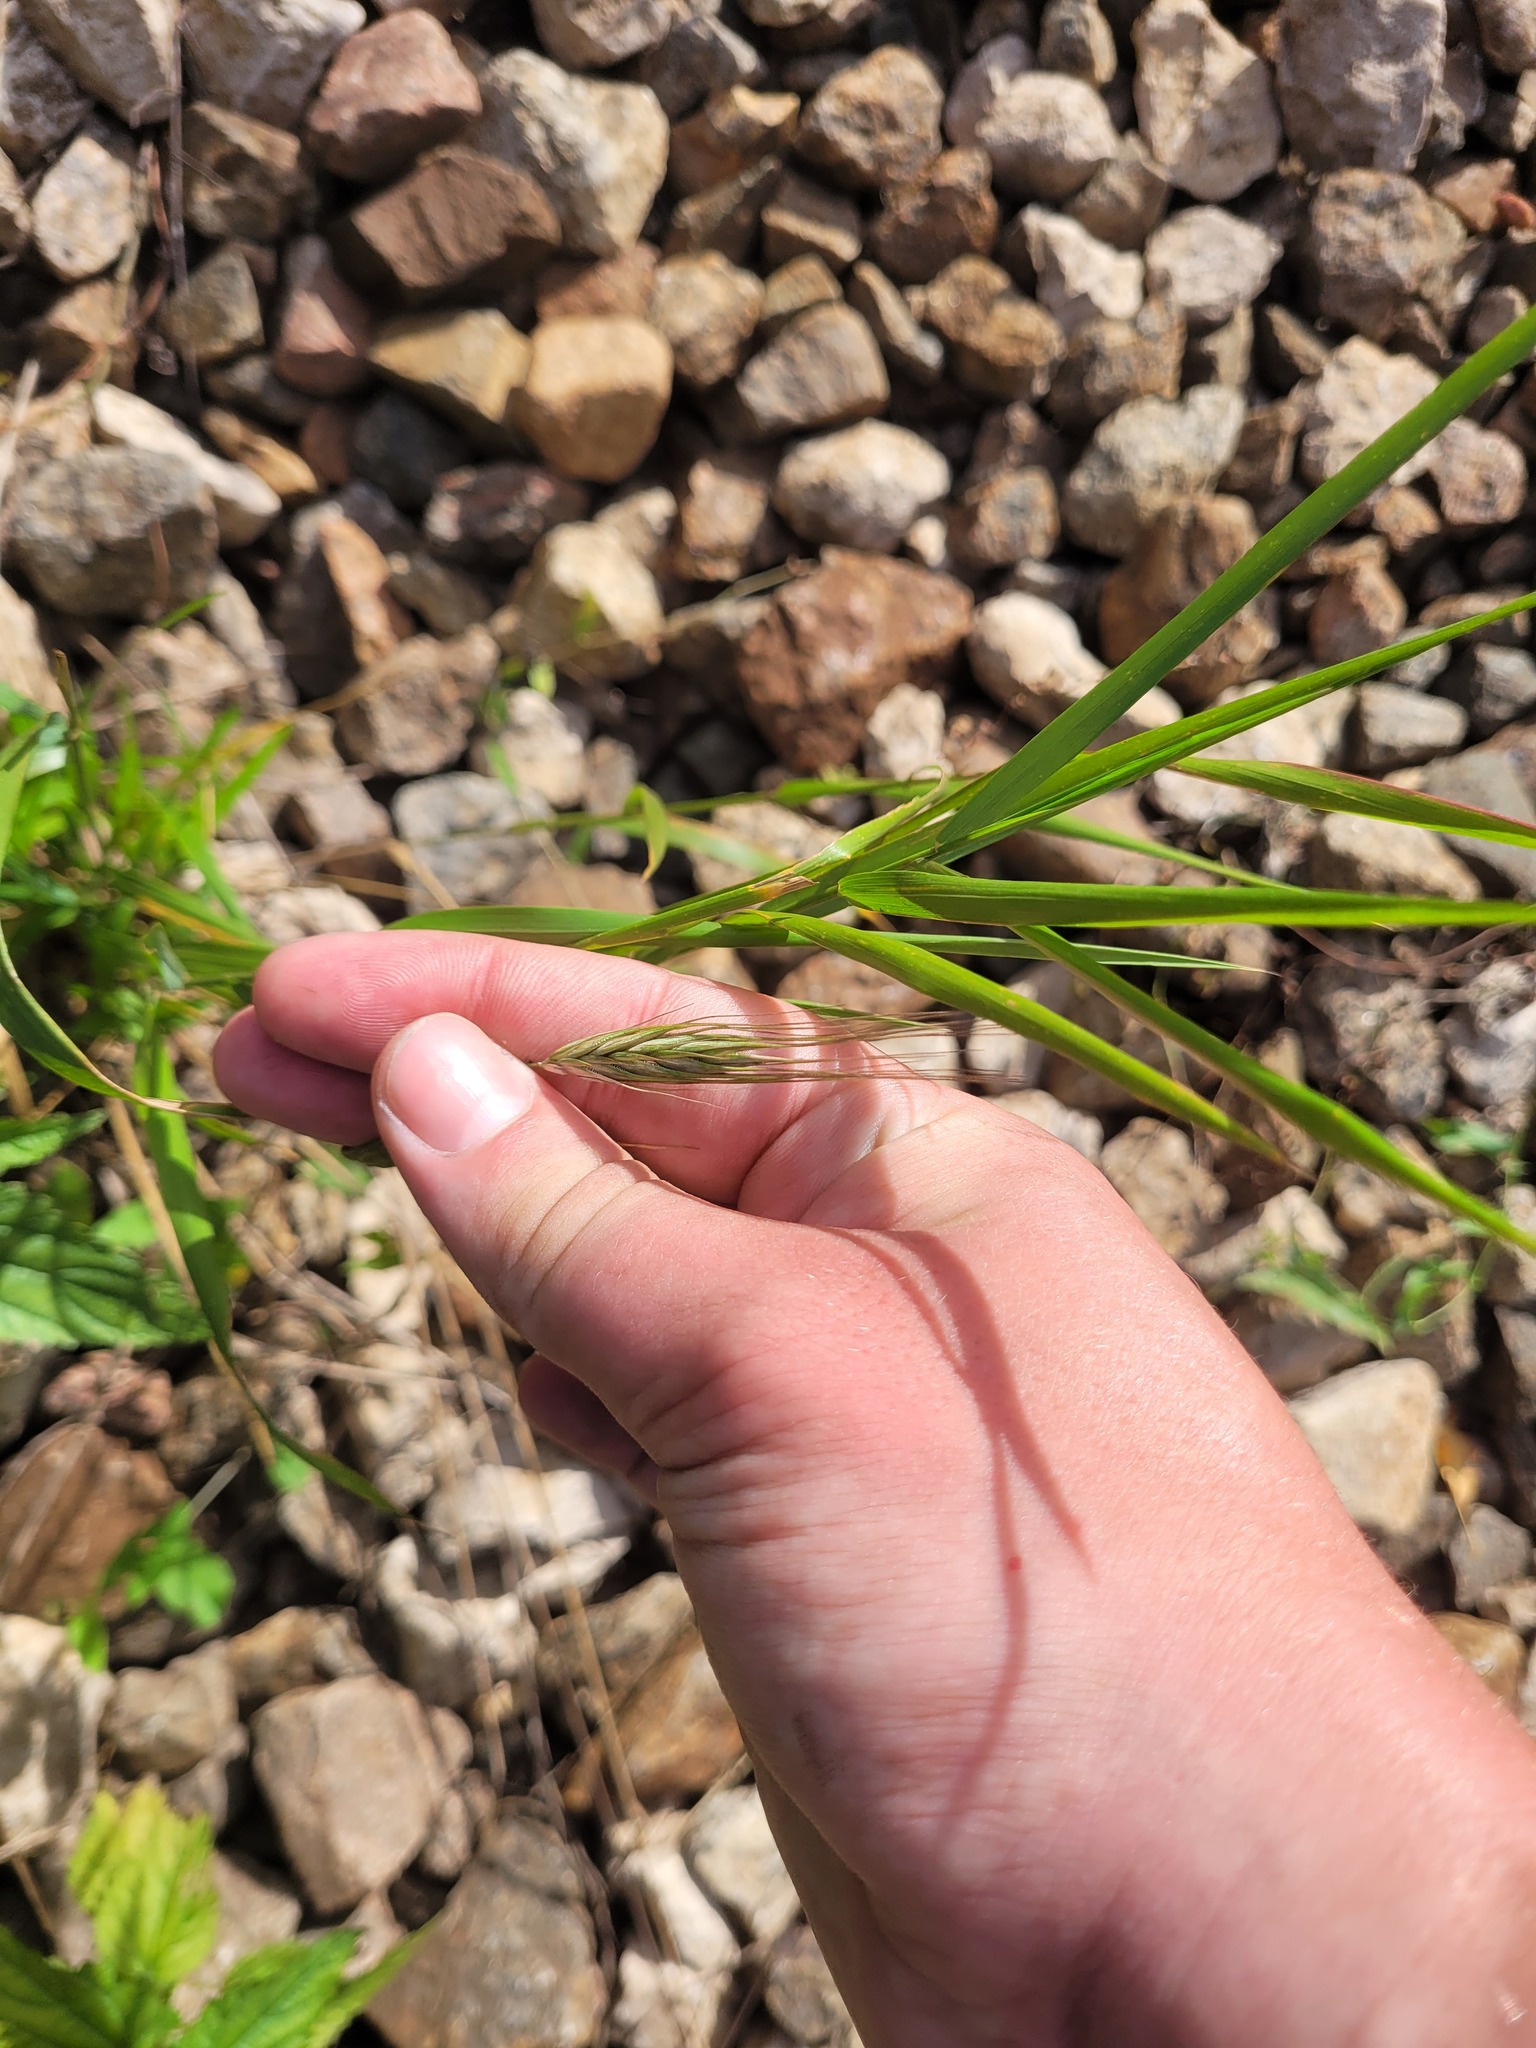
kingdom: Plantae
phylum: Tracheophyta
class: Liliopsida
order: Poales
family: Poaceae
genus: Secale
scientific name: Secale cereale
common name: Rye
